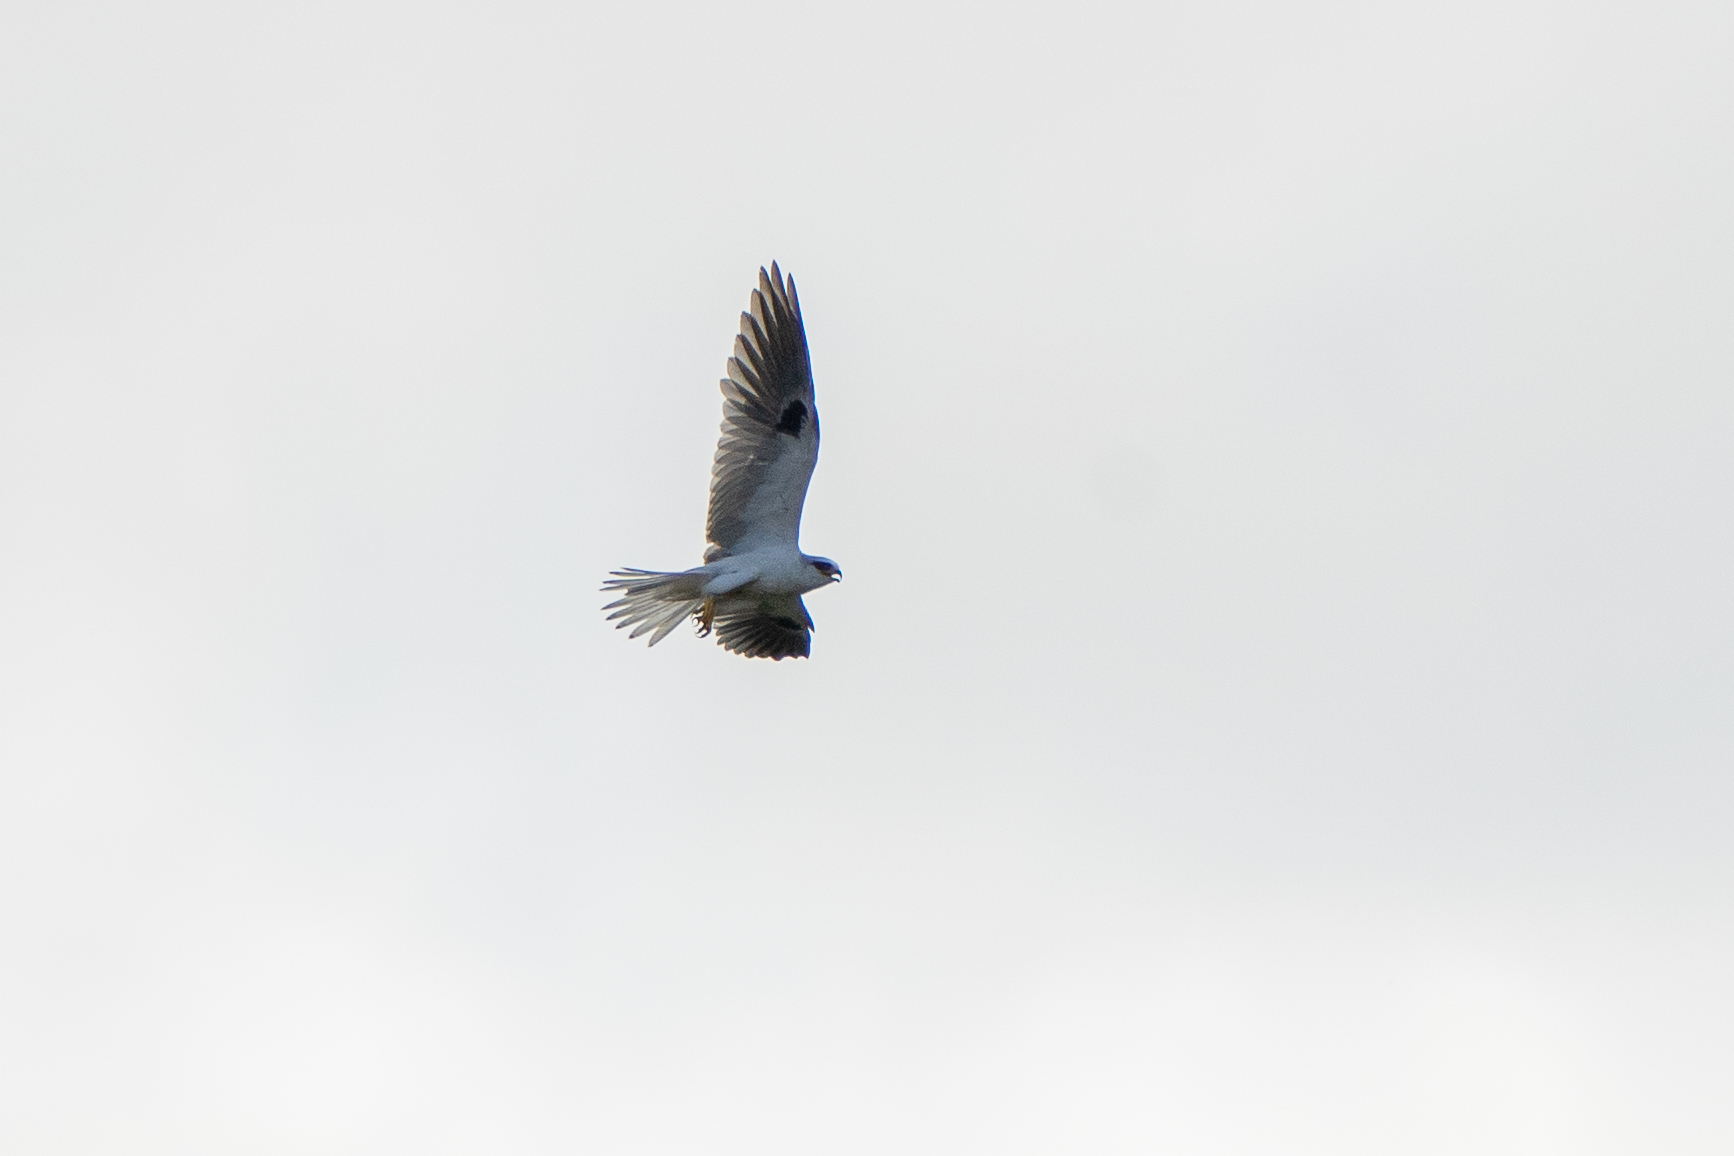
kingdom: Animalia
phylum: Chordata
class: Aves
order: Accipitriformes
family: Accipitridae
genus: Elanus
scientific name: Elanus leucurus
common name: White-tailed kite
